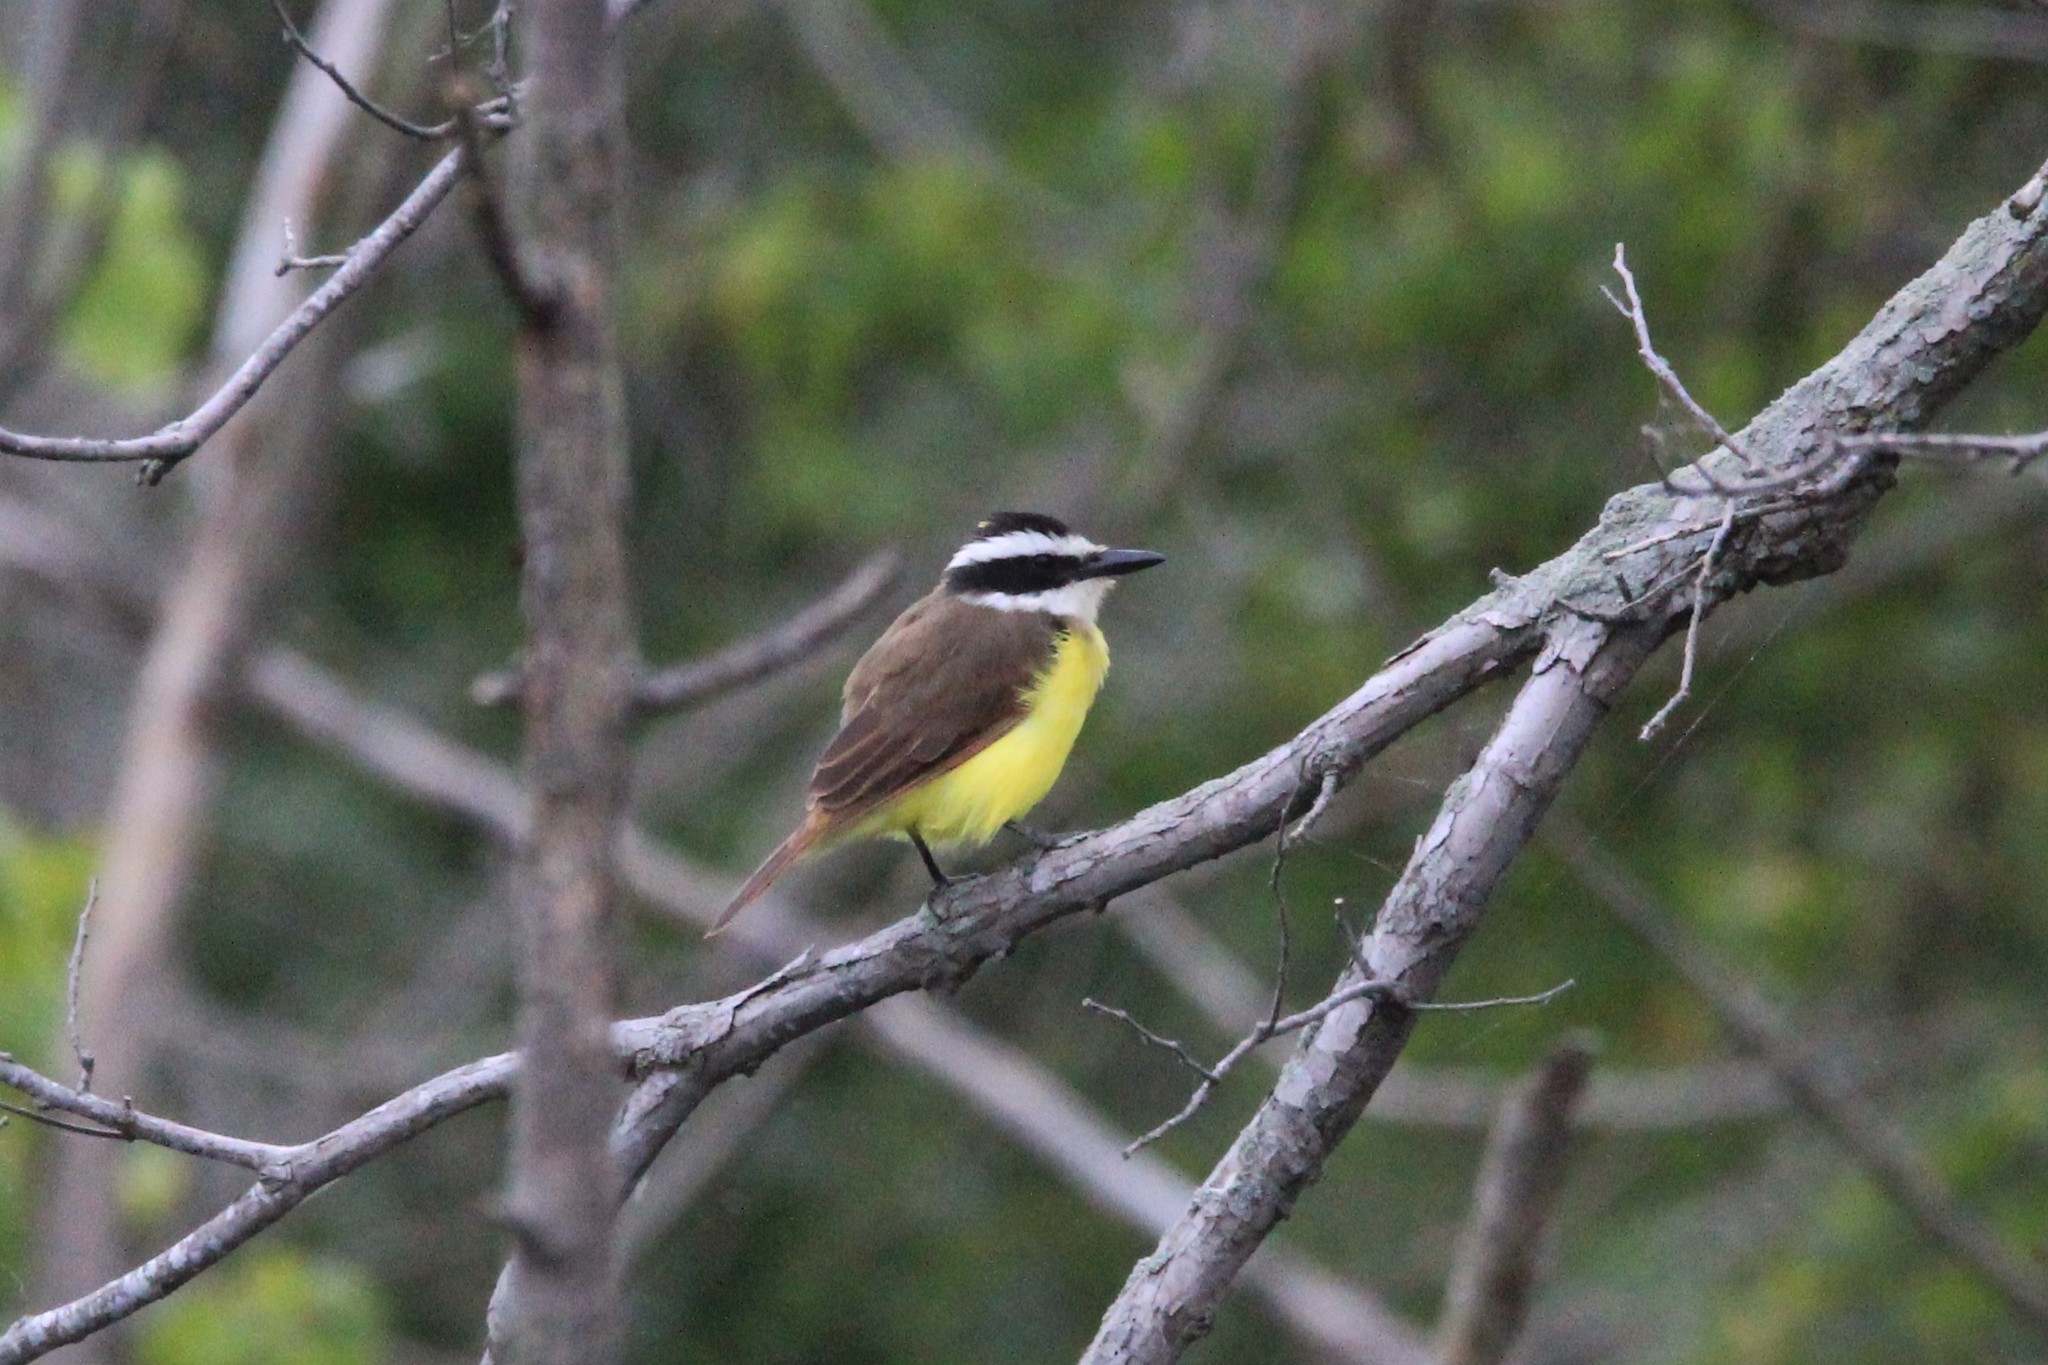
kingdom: Animalia
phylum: Chordata
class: Aves
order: Passeriformes
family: Tyrannidae
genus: Pitangus
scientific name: Pitangus sulphuratus
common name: Great kiskadee
